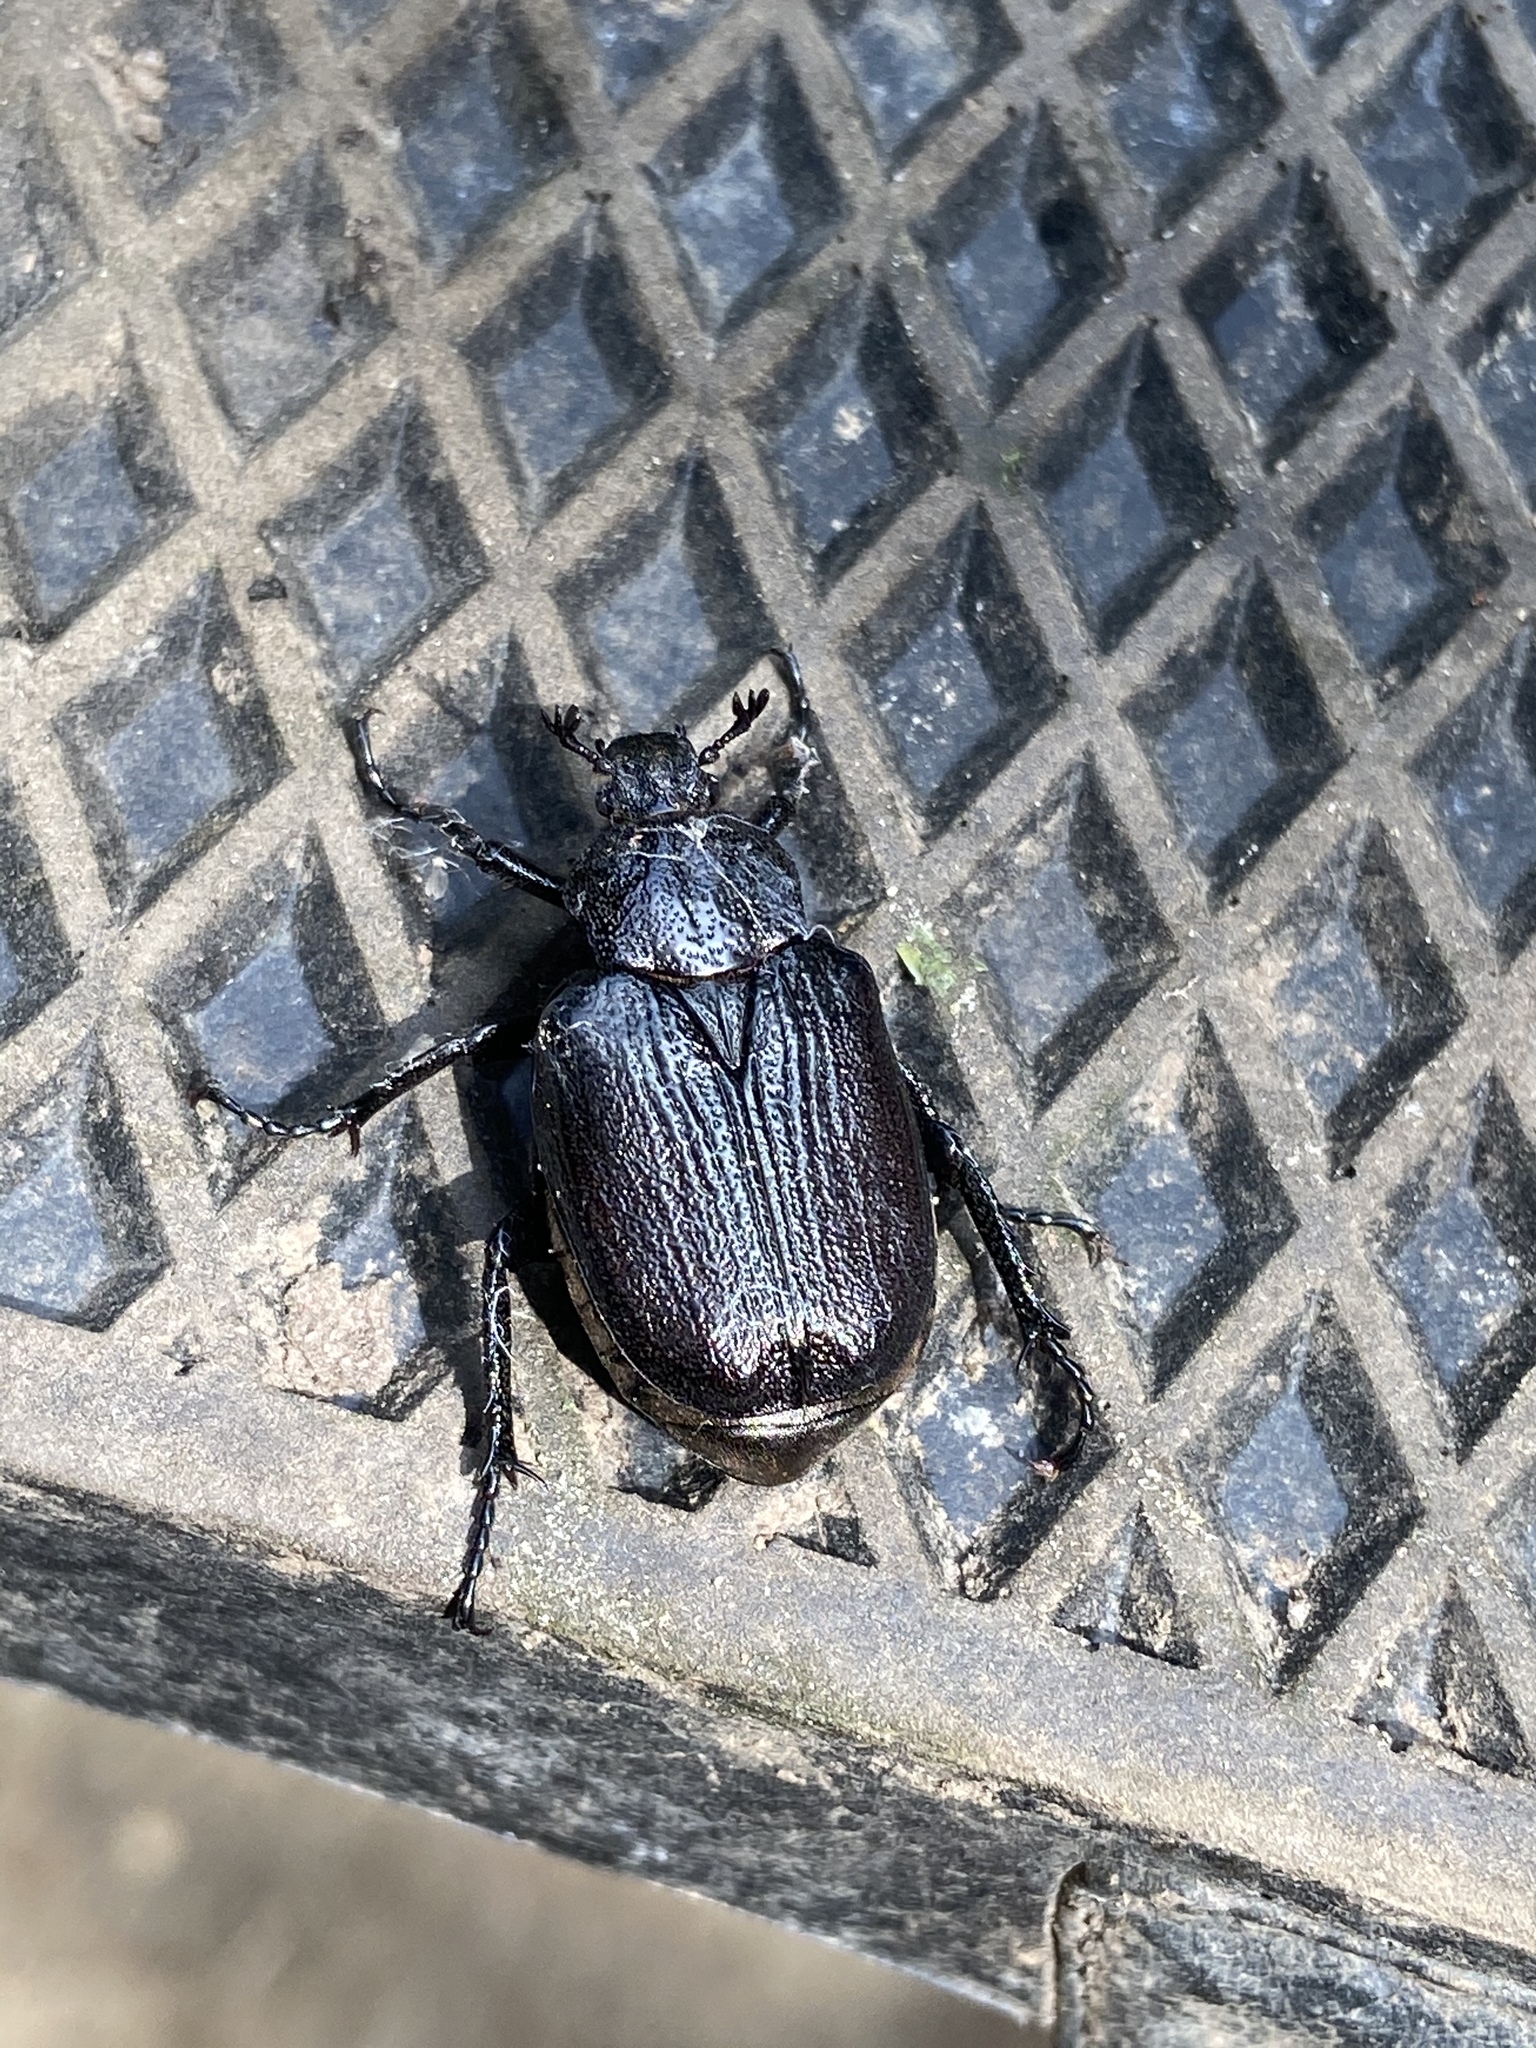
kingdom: Animalia
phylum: Arthropoda
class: Insecta
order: Coleoptera
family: Scarabaeidae
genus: Osmoderma
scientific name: Osmoderma scabra
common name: Rough hermit beetle
